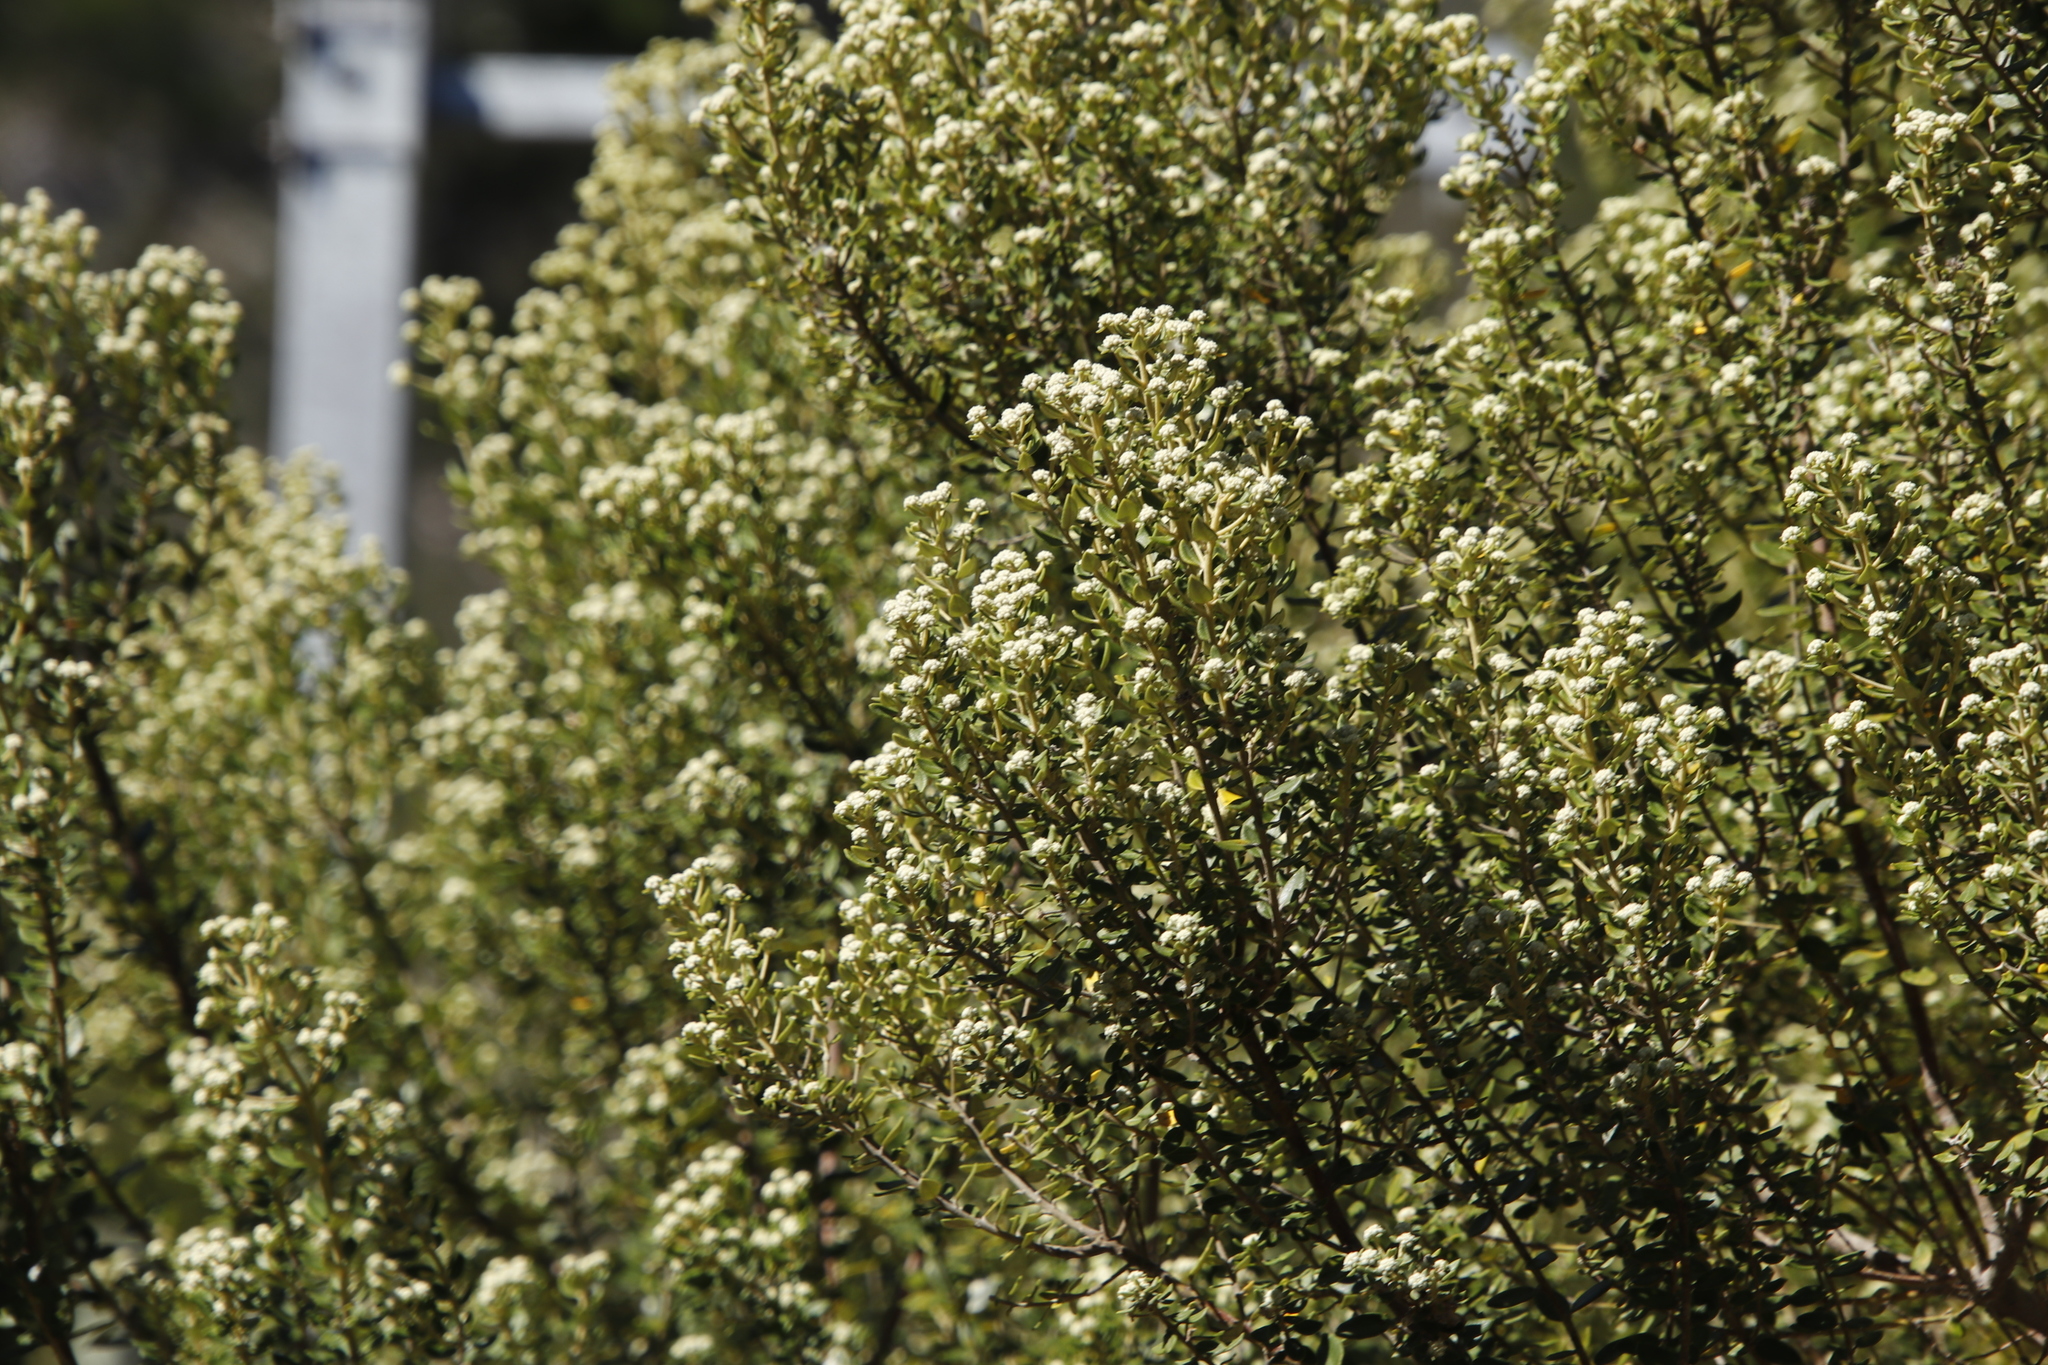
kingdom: Plantae
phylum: Tracheophyta
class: Magnoliopsida
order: Rosales
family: Rhamnaceae
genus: Phylica
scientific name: Phylica buxifolia
